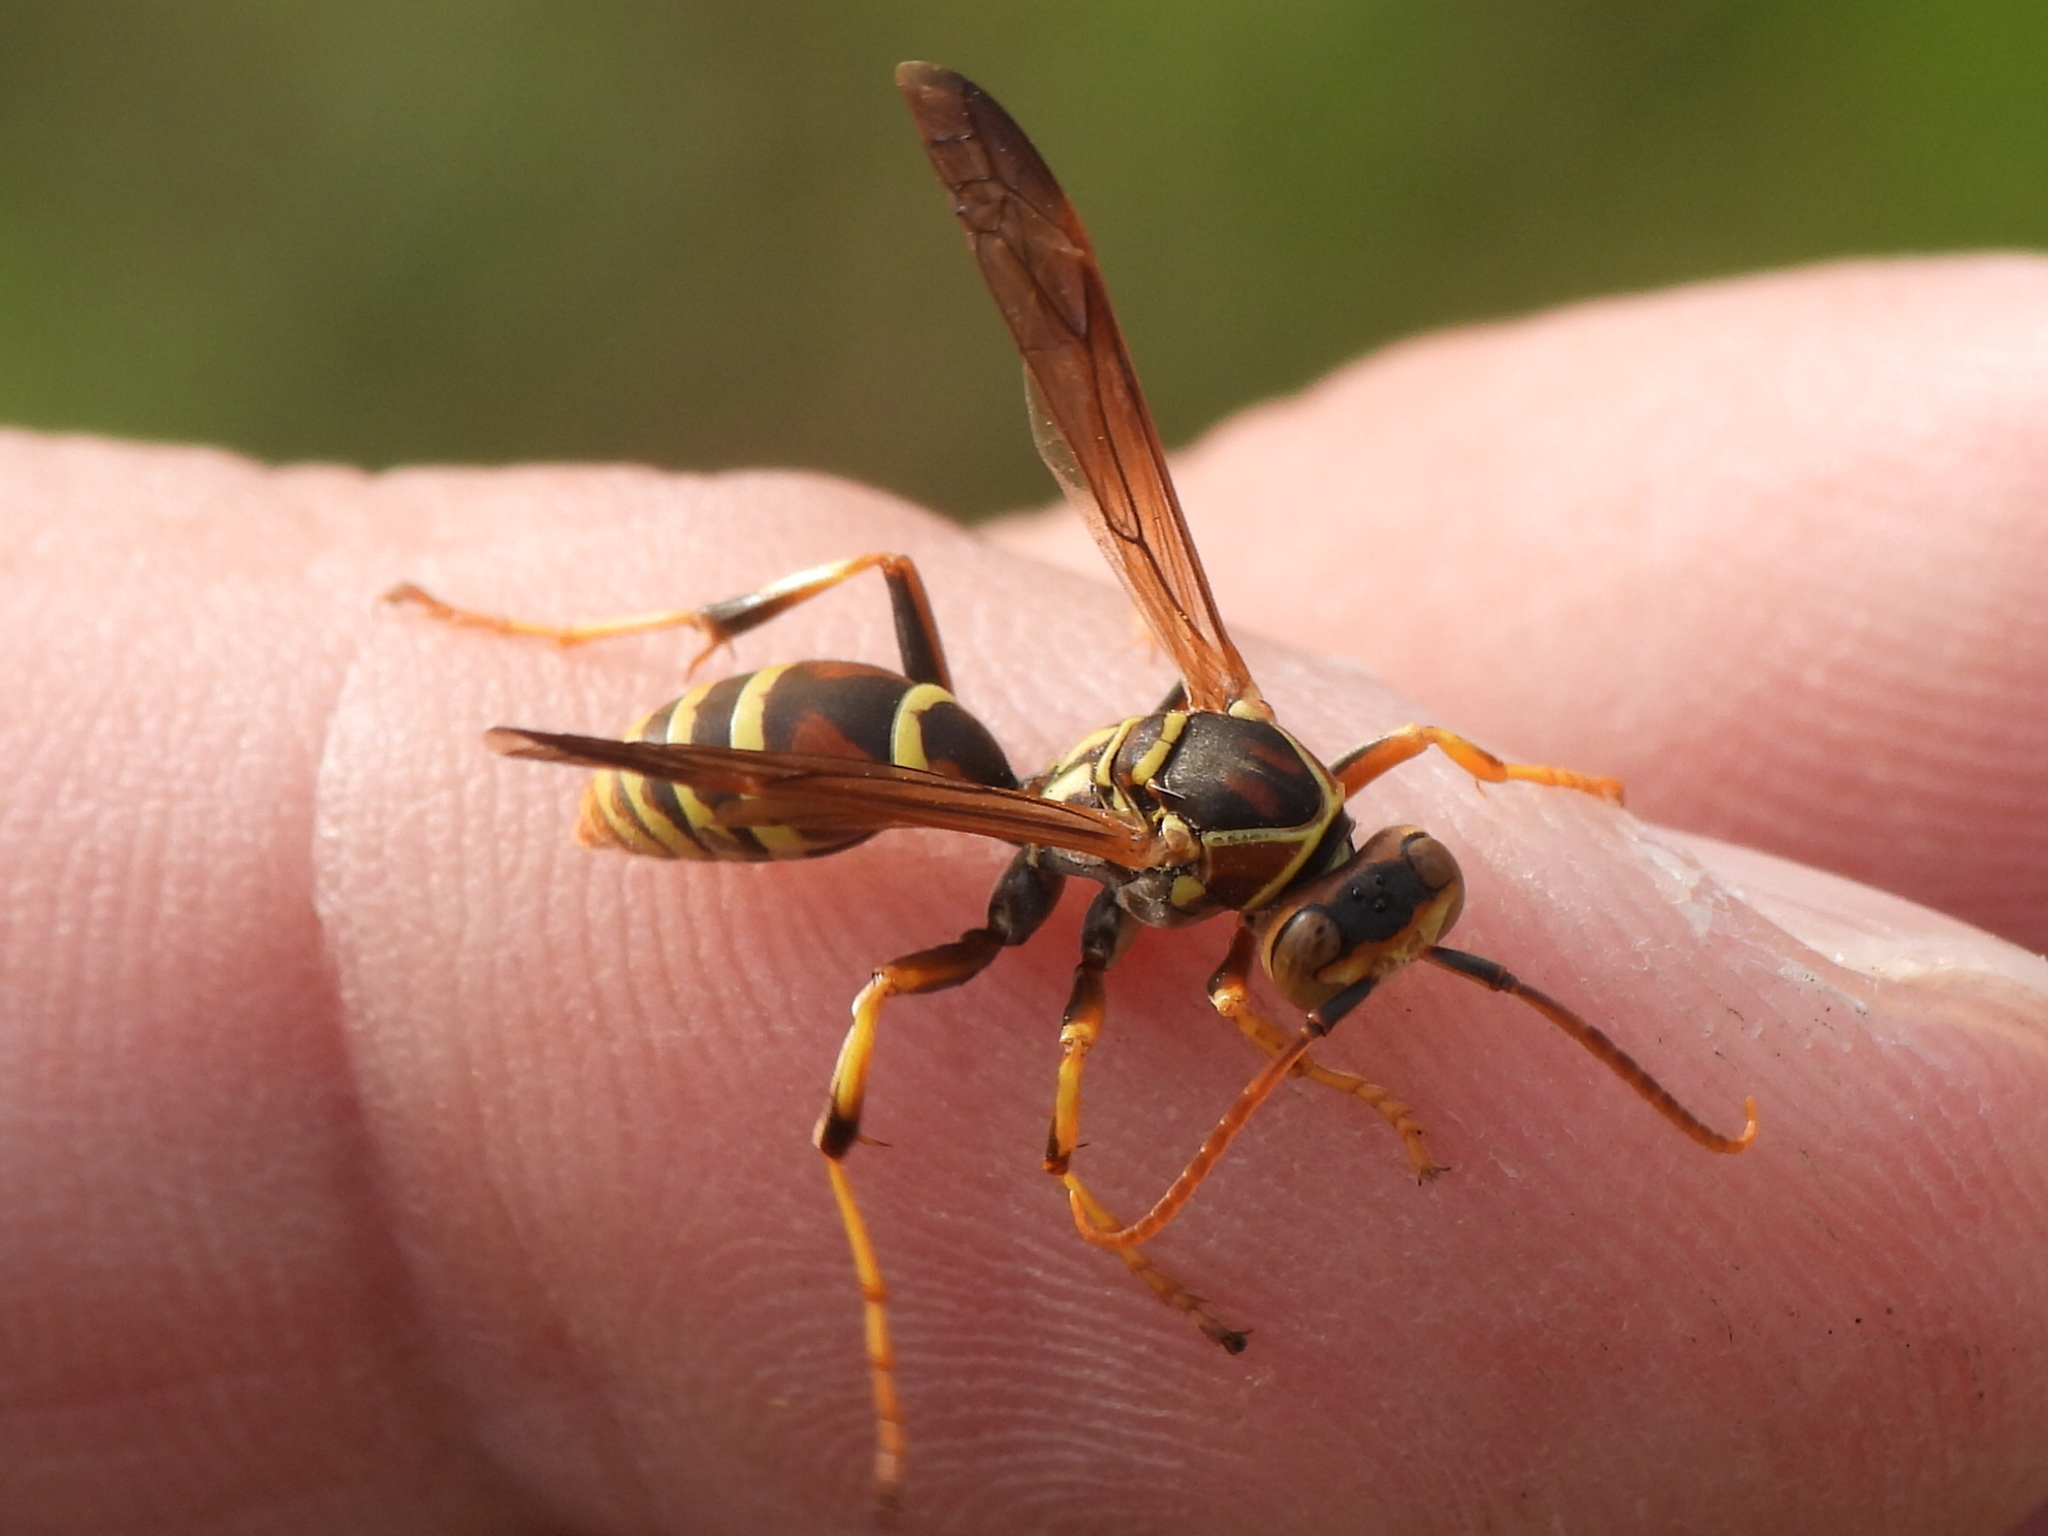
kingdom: Animalia
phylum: Arthropoda
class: Insecta
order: Hymenoptera
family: Eumenidae
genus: Polistes
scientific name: Polistes dorsalis
